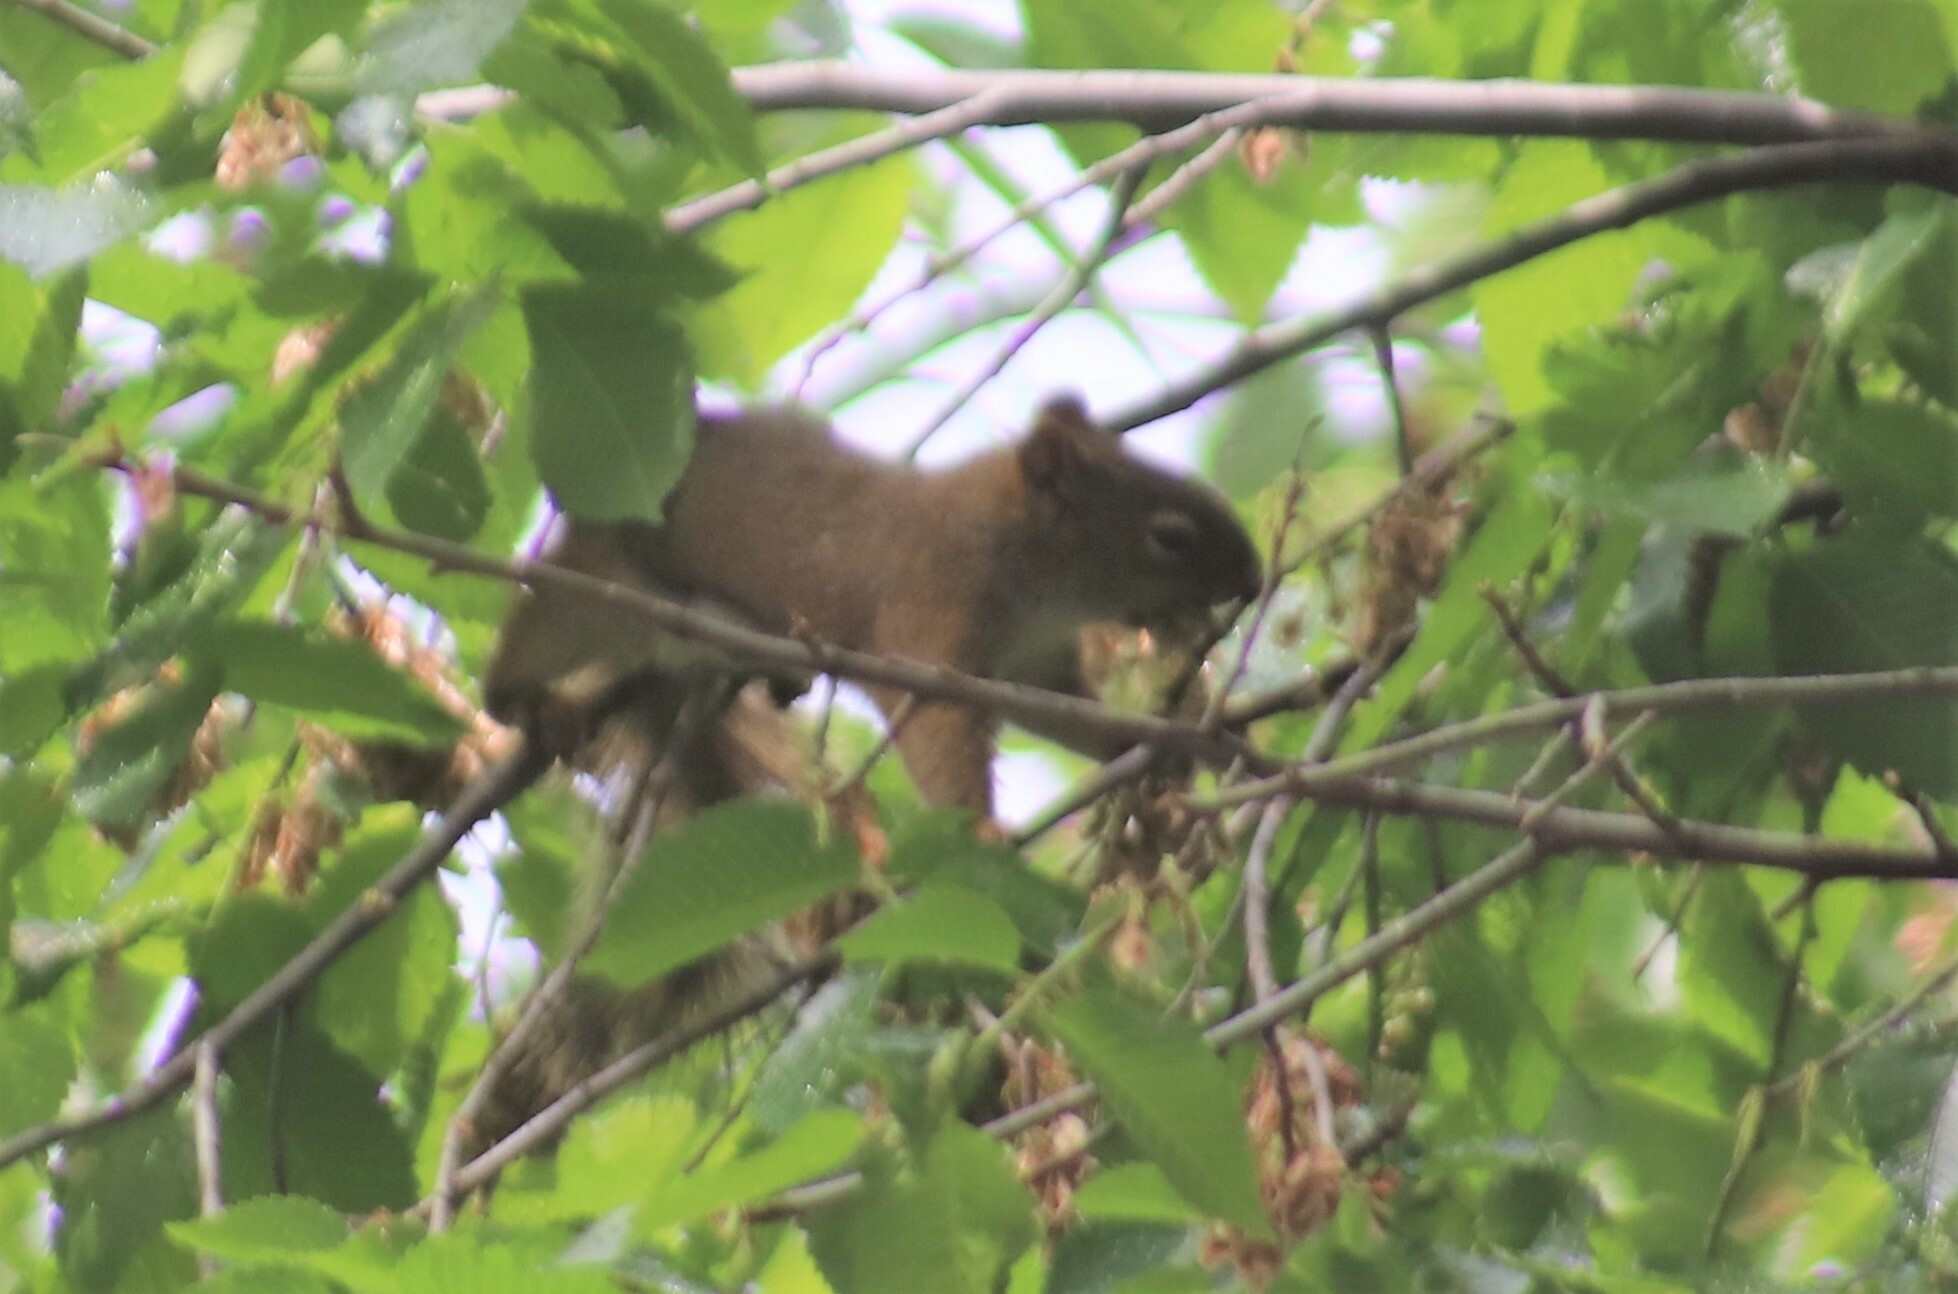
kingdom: Animalia
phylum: Chordata
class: Mammalia
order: Rodentia
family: Sciuridae
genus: Tamiasciurus
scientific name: Tamiasciurus hudsonicus
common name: Red squirrel
